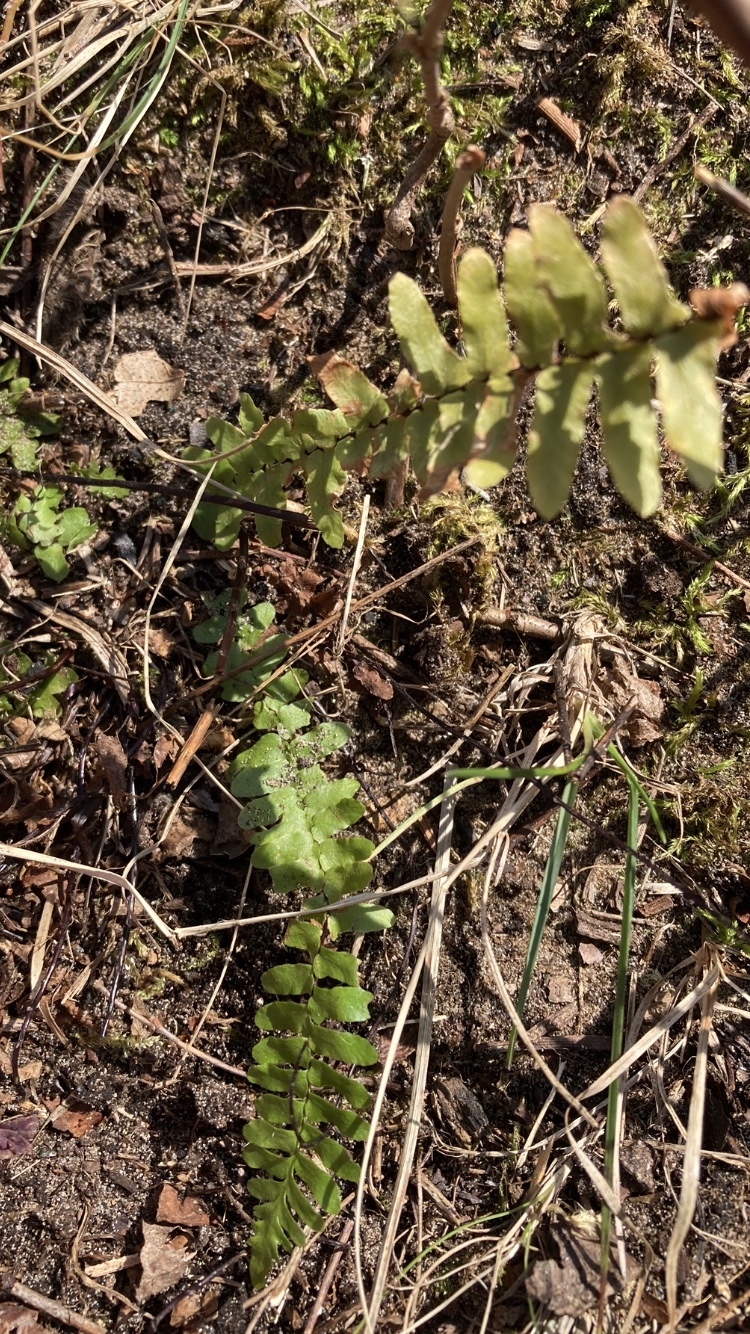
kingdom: Plantae
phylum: Tracheophyta
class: Polypodiopsida
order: Polypodiales
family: Aspleniaceae
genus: Asplenium
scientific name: Asplenium platyneuron
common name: Ebony spleenwort
